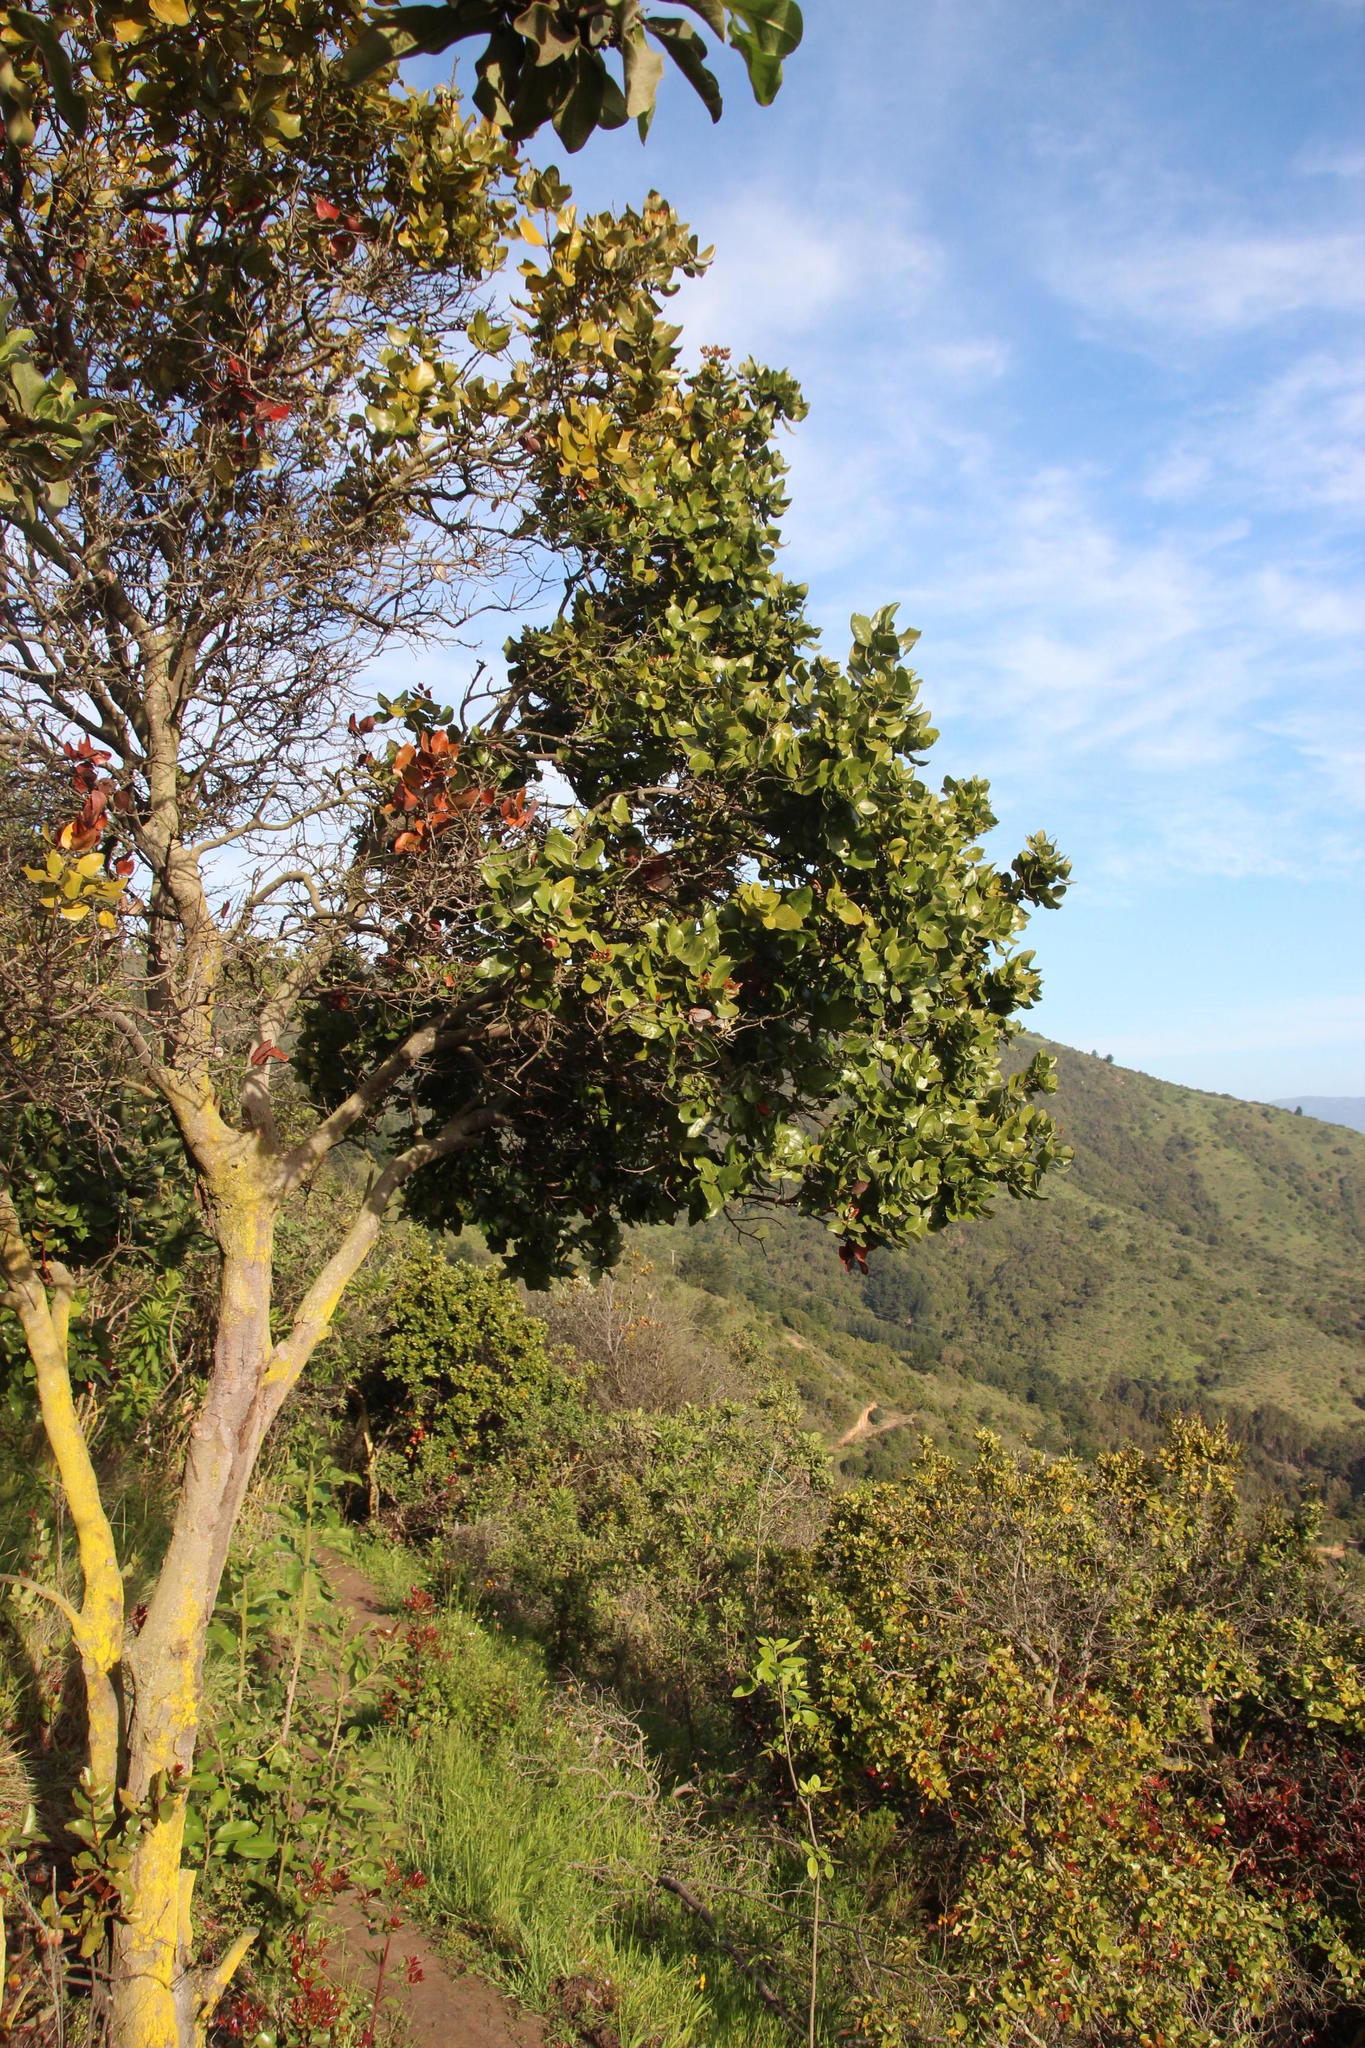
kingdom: Plantae
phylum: Tracheophyta
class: Magnoliopsida
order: Laurales
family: Lauraceae
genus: Cryptocarya
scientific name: Cryptocarya alba
